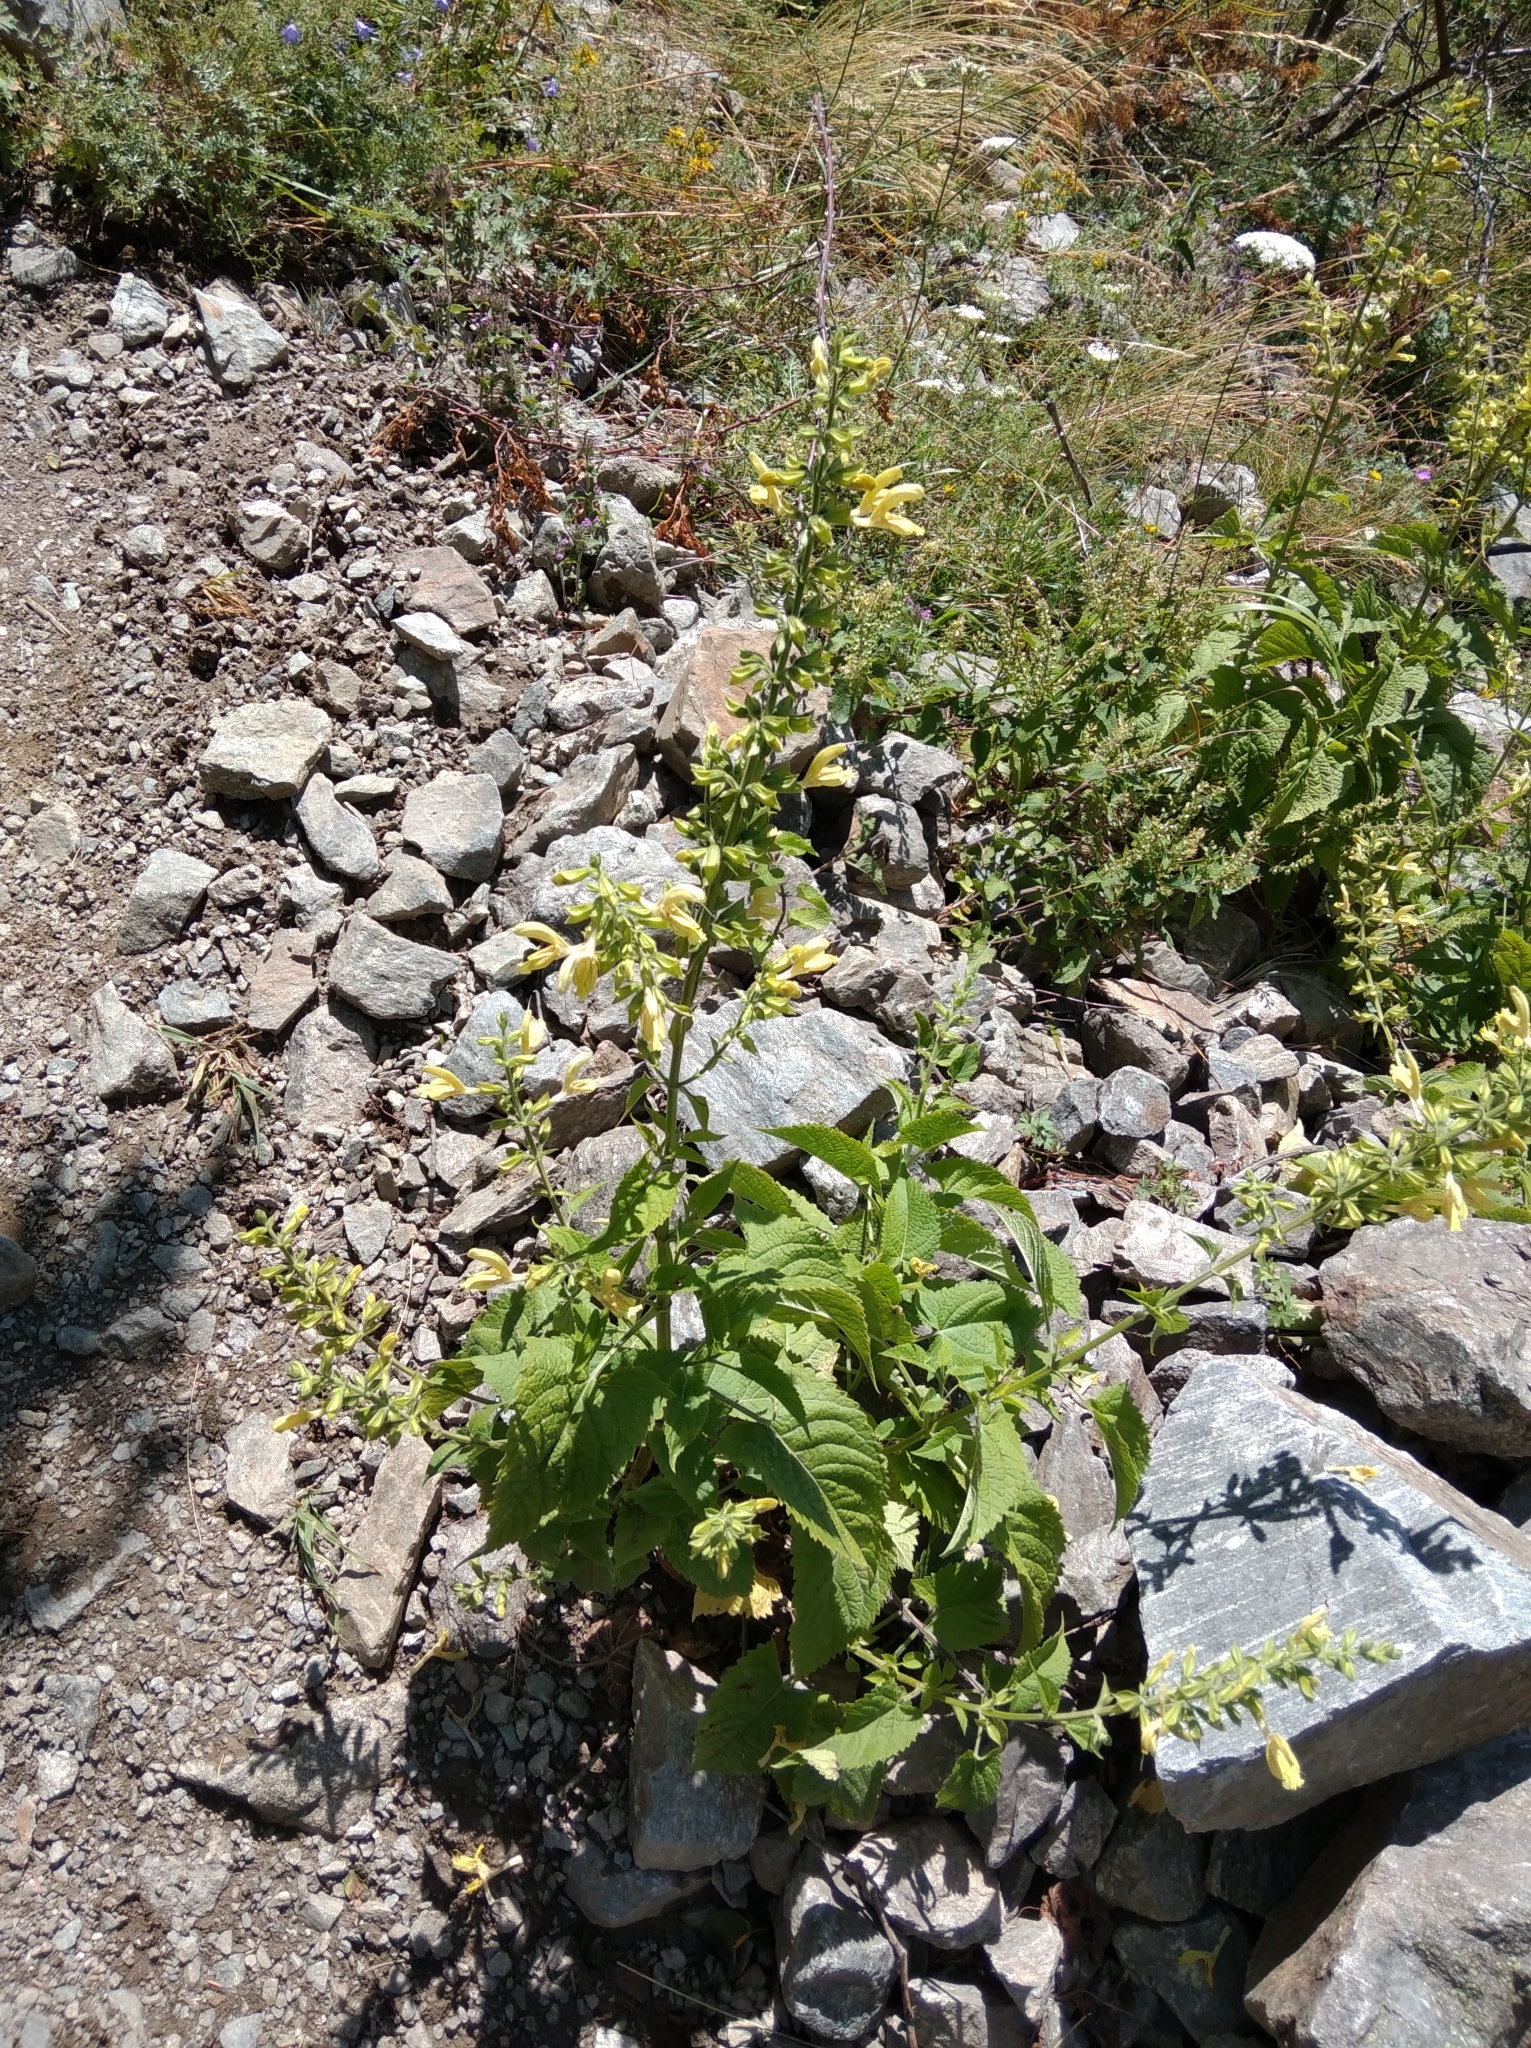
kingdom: Plantae
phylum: Tracheophyta
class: Magnoliopsida
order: Lamiales
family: Lamiaceae
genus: Salvia
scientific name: Salvia glutinosa
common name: Sticky clary
